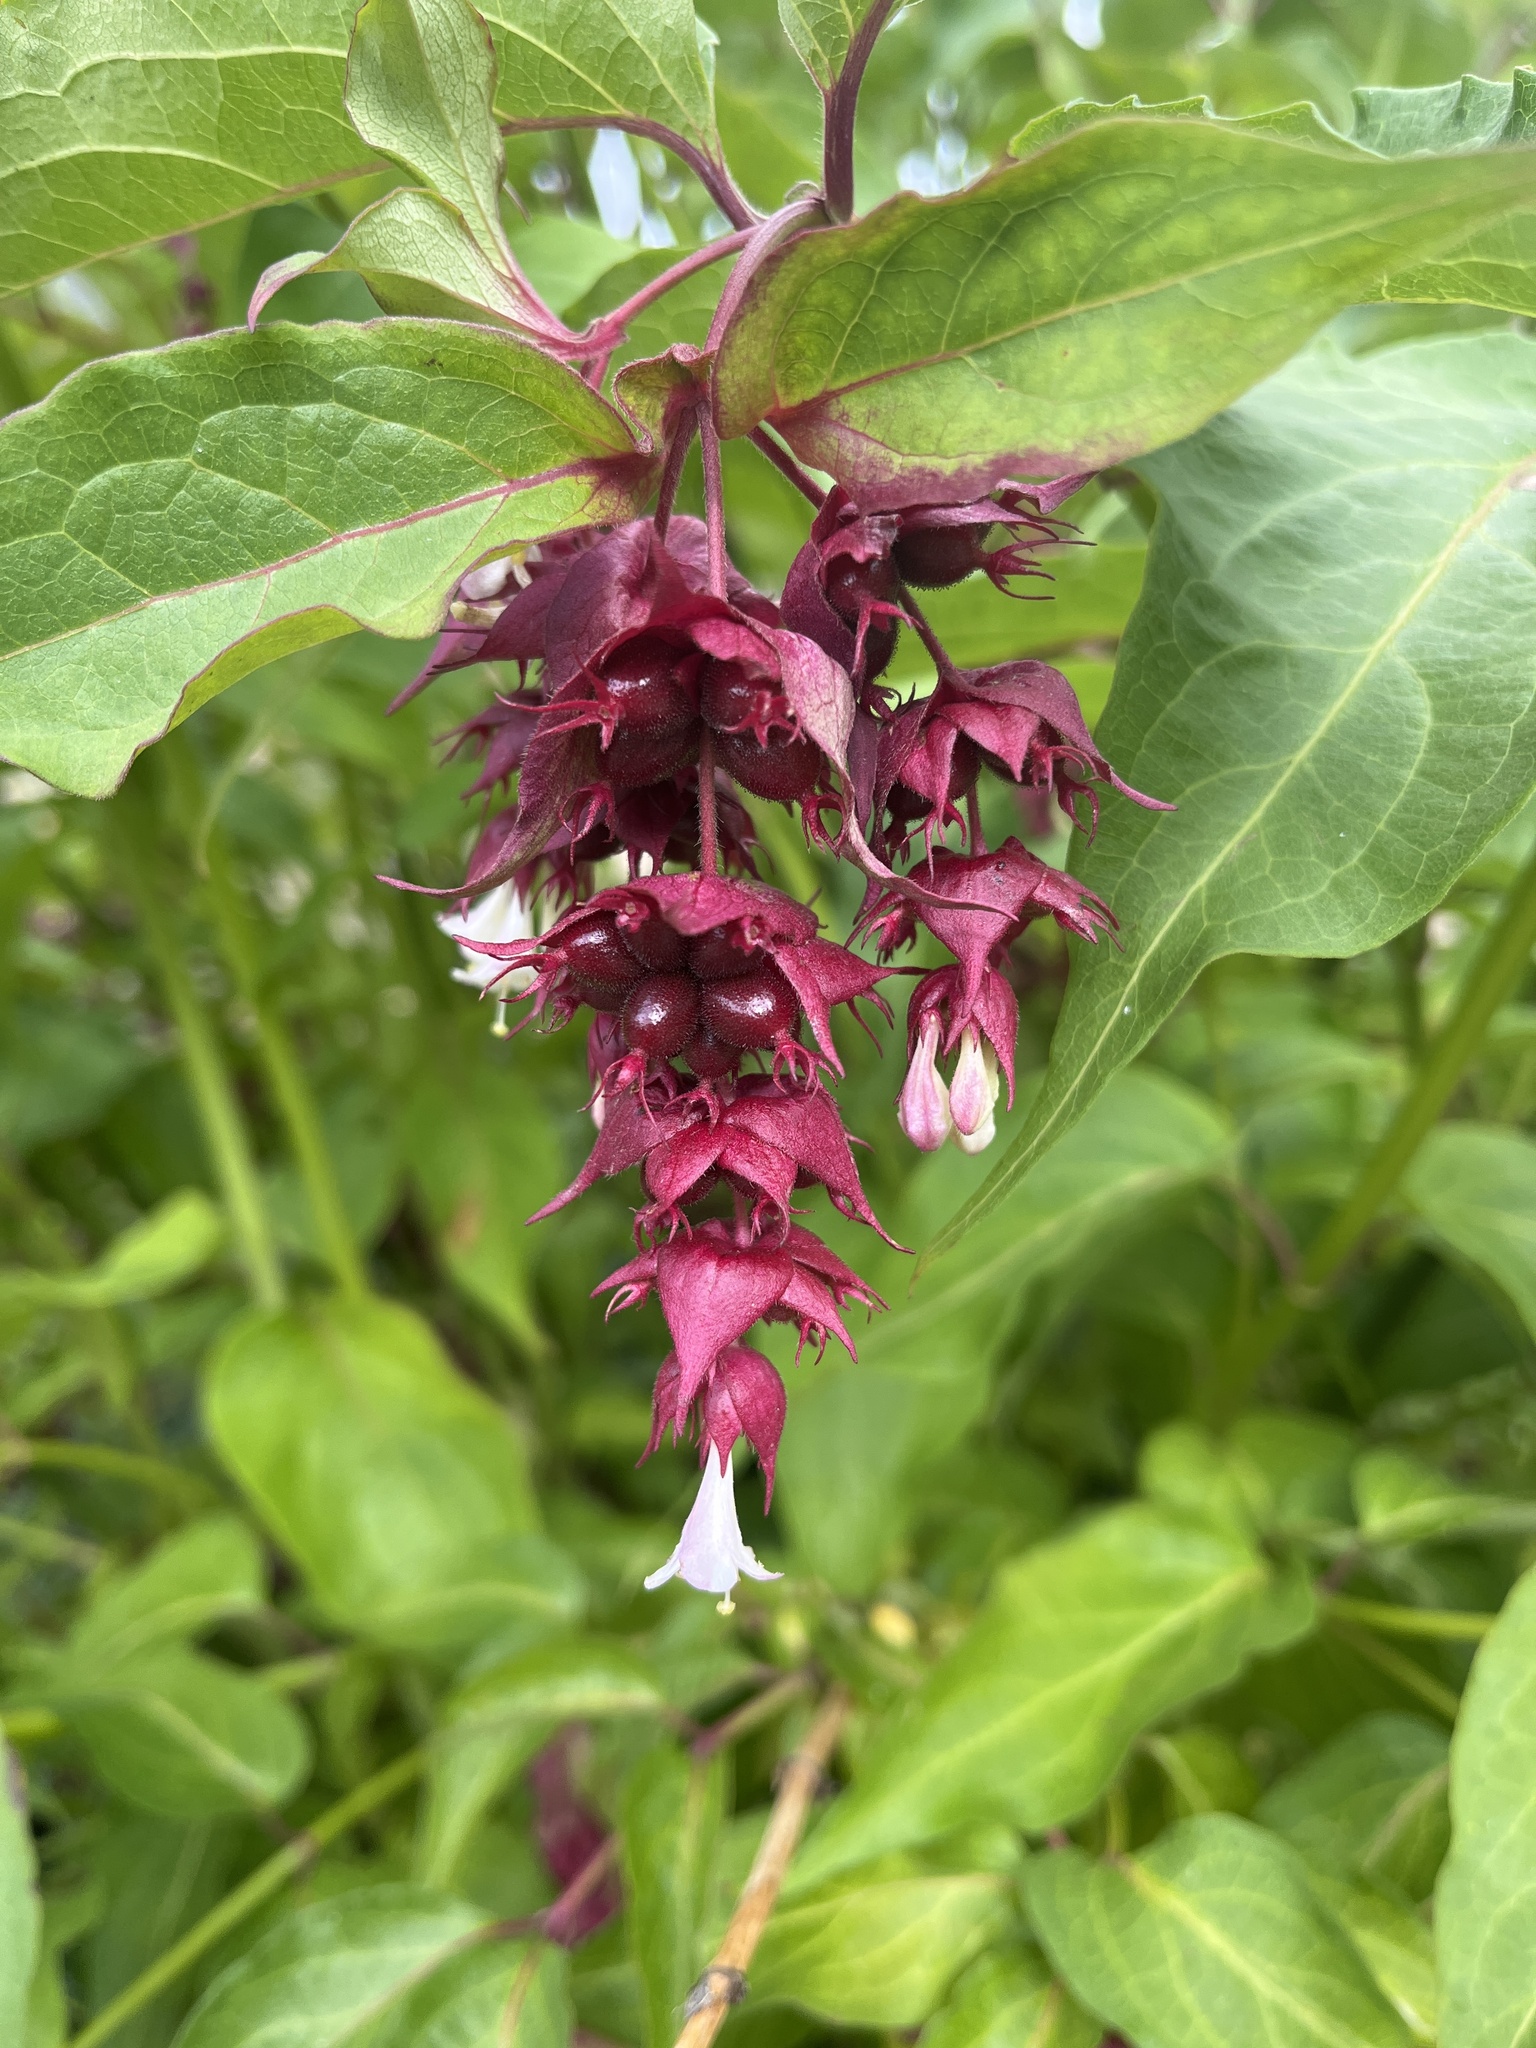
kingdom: Plantae
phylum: Tracheophyta
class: Magnoliopsida
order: Dipsacales
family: Caprifoliaceae
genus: Leycesteria
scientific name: Leycesteria formosa
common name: Himalayan honeysuckle
